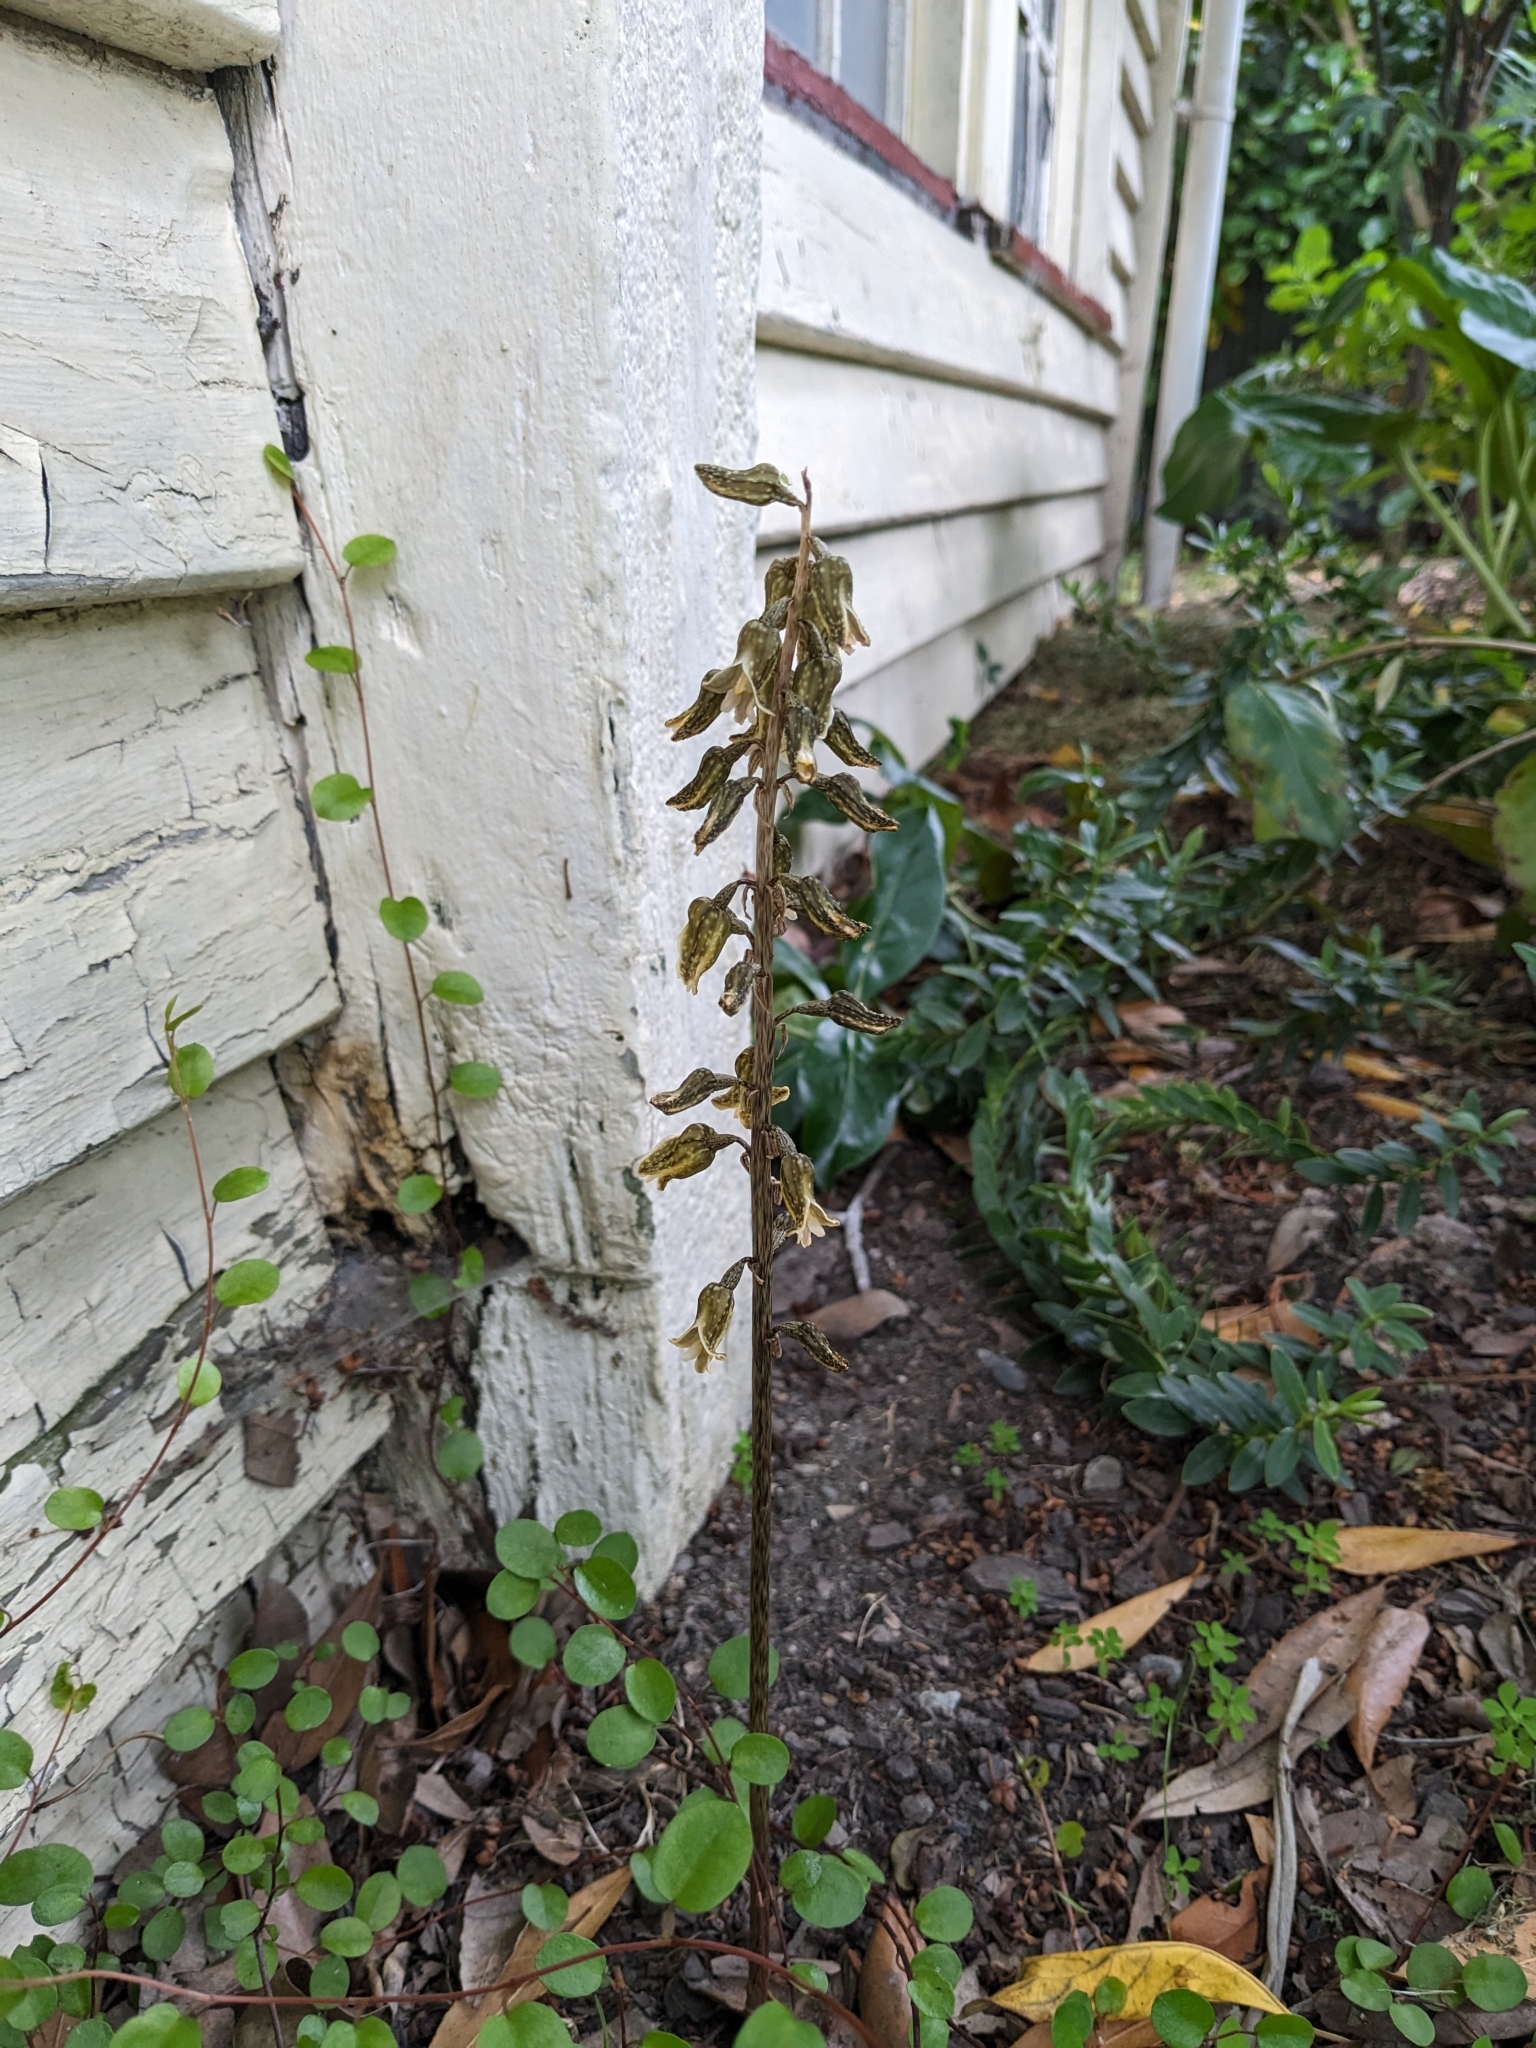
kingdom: Plantae
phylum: Tracheophyta
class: Liliopsida
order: Asparagales
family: Orchidaceae
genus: Gastrodia
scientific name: Gastrodia molloyi
